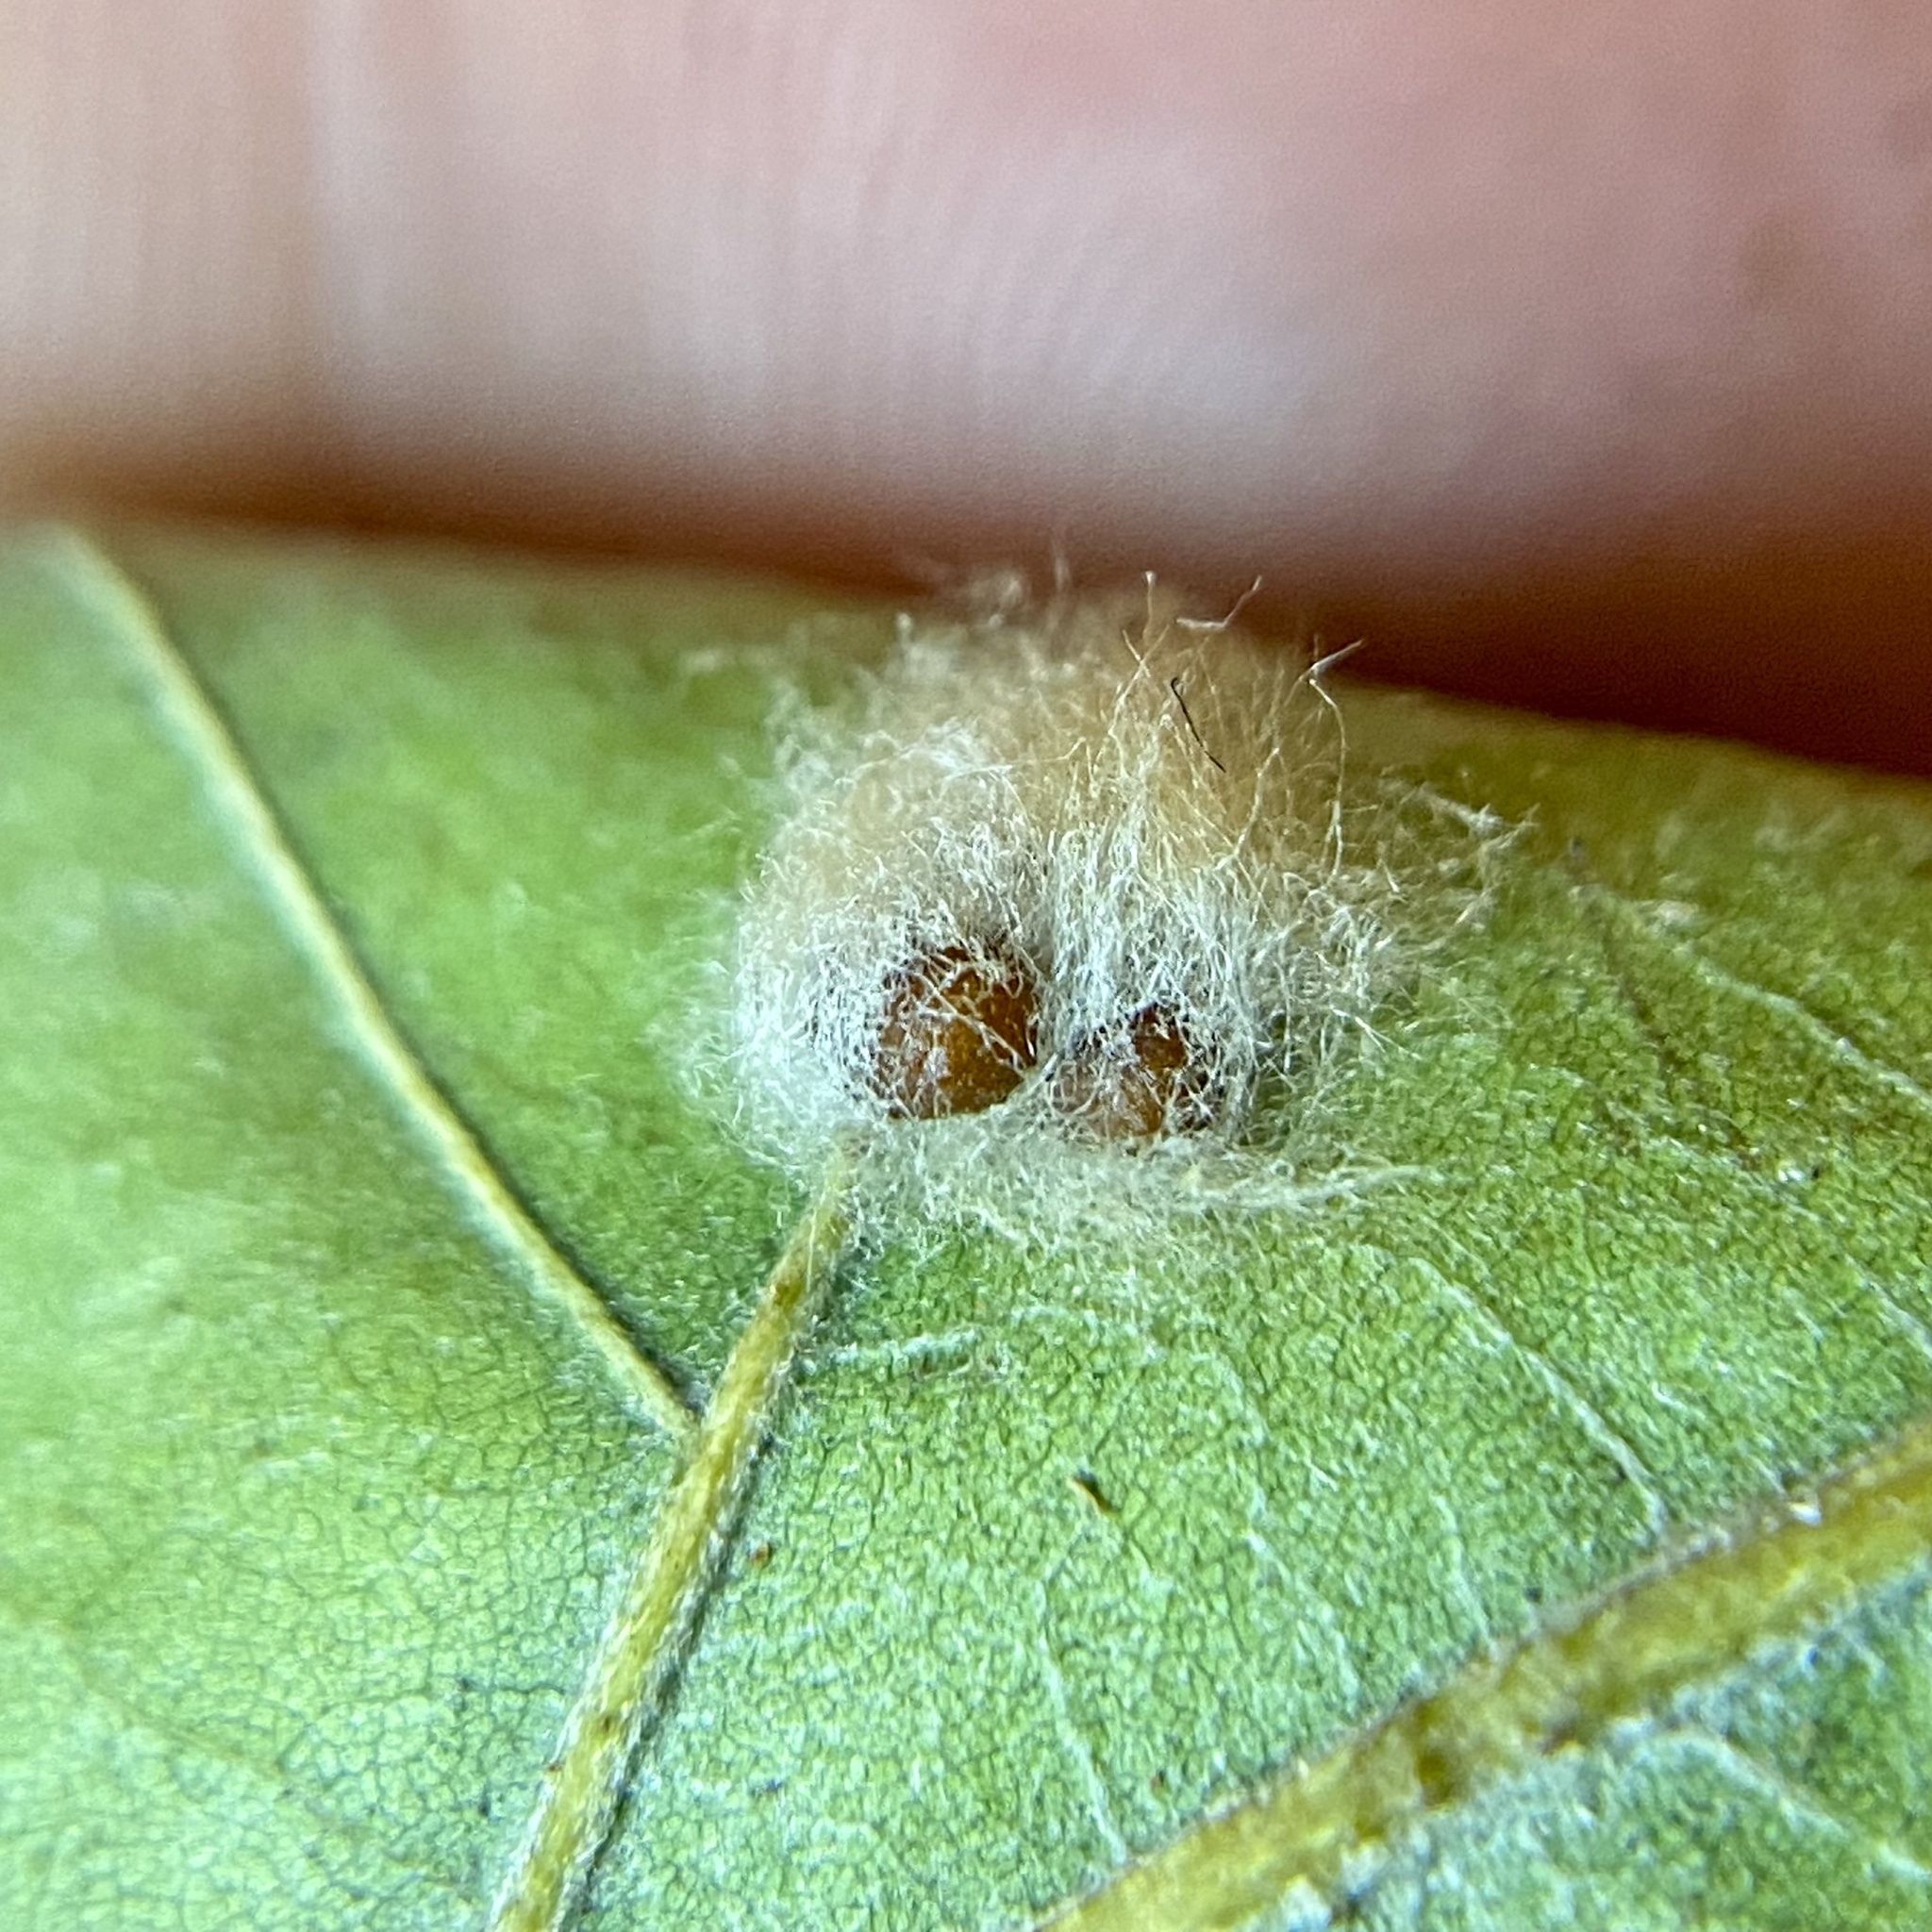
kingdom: Animalia
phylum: Arthropoda
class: Insecta
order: Hymenoptera
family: Cynipidae
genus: Andricus
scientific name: Andricus Druon ignotum
